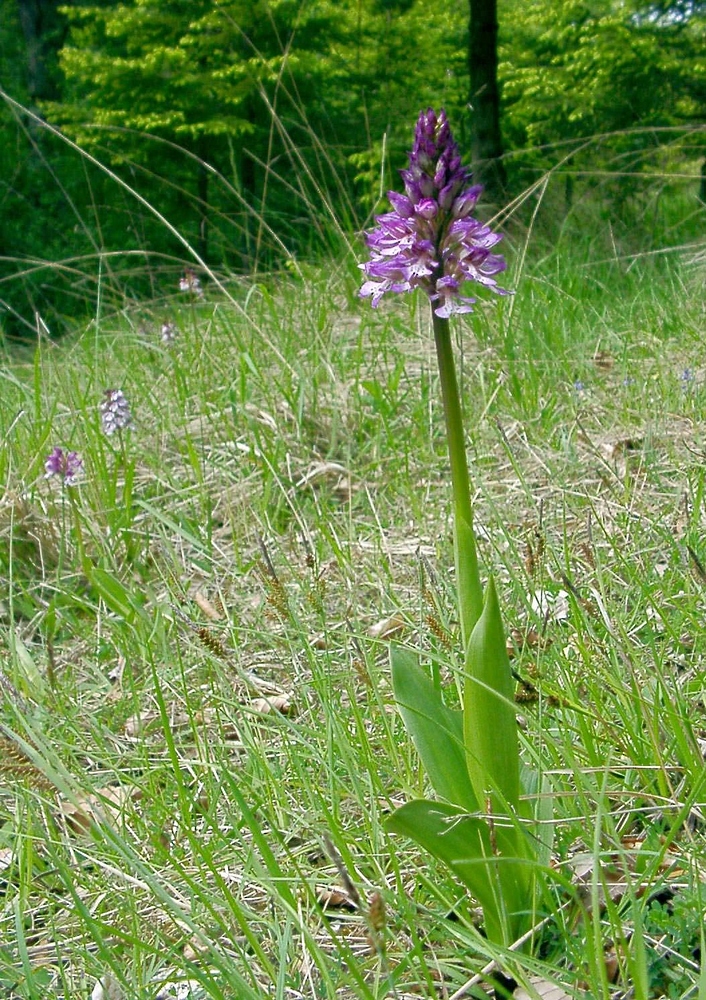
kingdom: Plantae
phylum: Tracheophyta
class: Liliopsida
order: Asparagales
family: Orchidaceae
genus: Orchis
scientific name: Orchis purpurea
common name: Lady orchid
